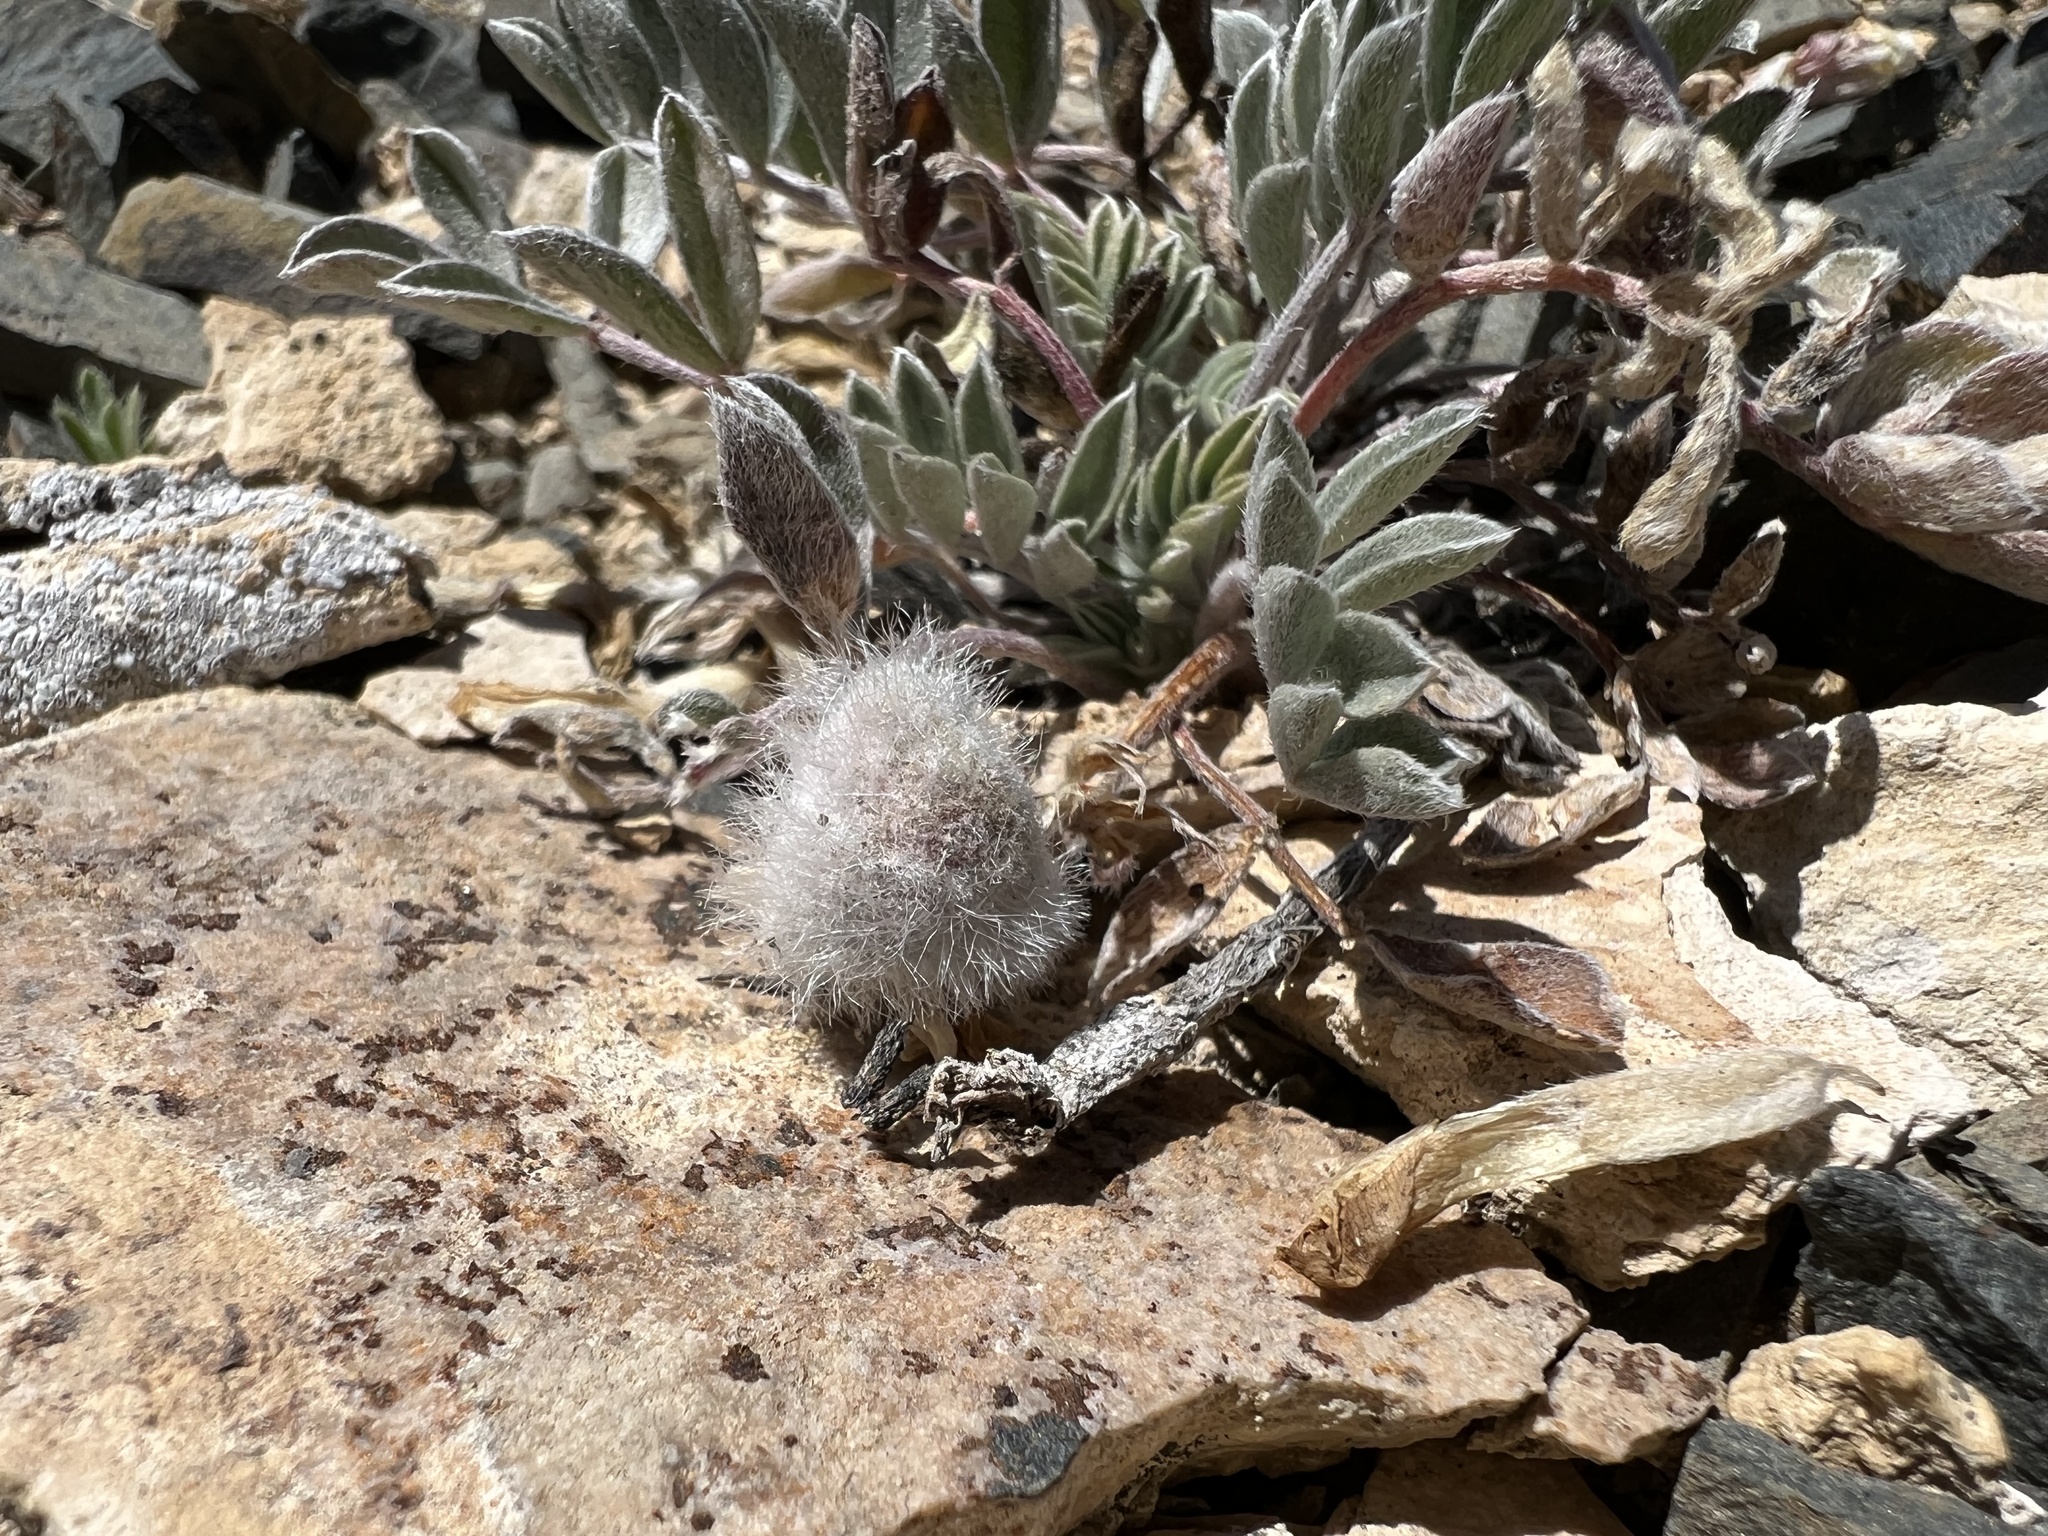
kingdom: Plantae
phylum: Tracheophyta
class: Magnoliopsida
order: Fabales
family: Fabaceae
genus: Astragalus
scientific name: Astragalus newberryi
